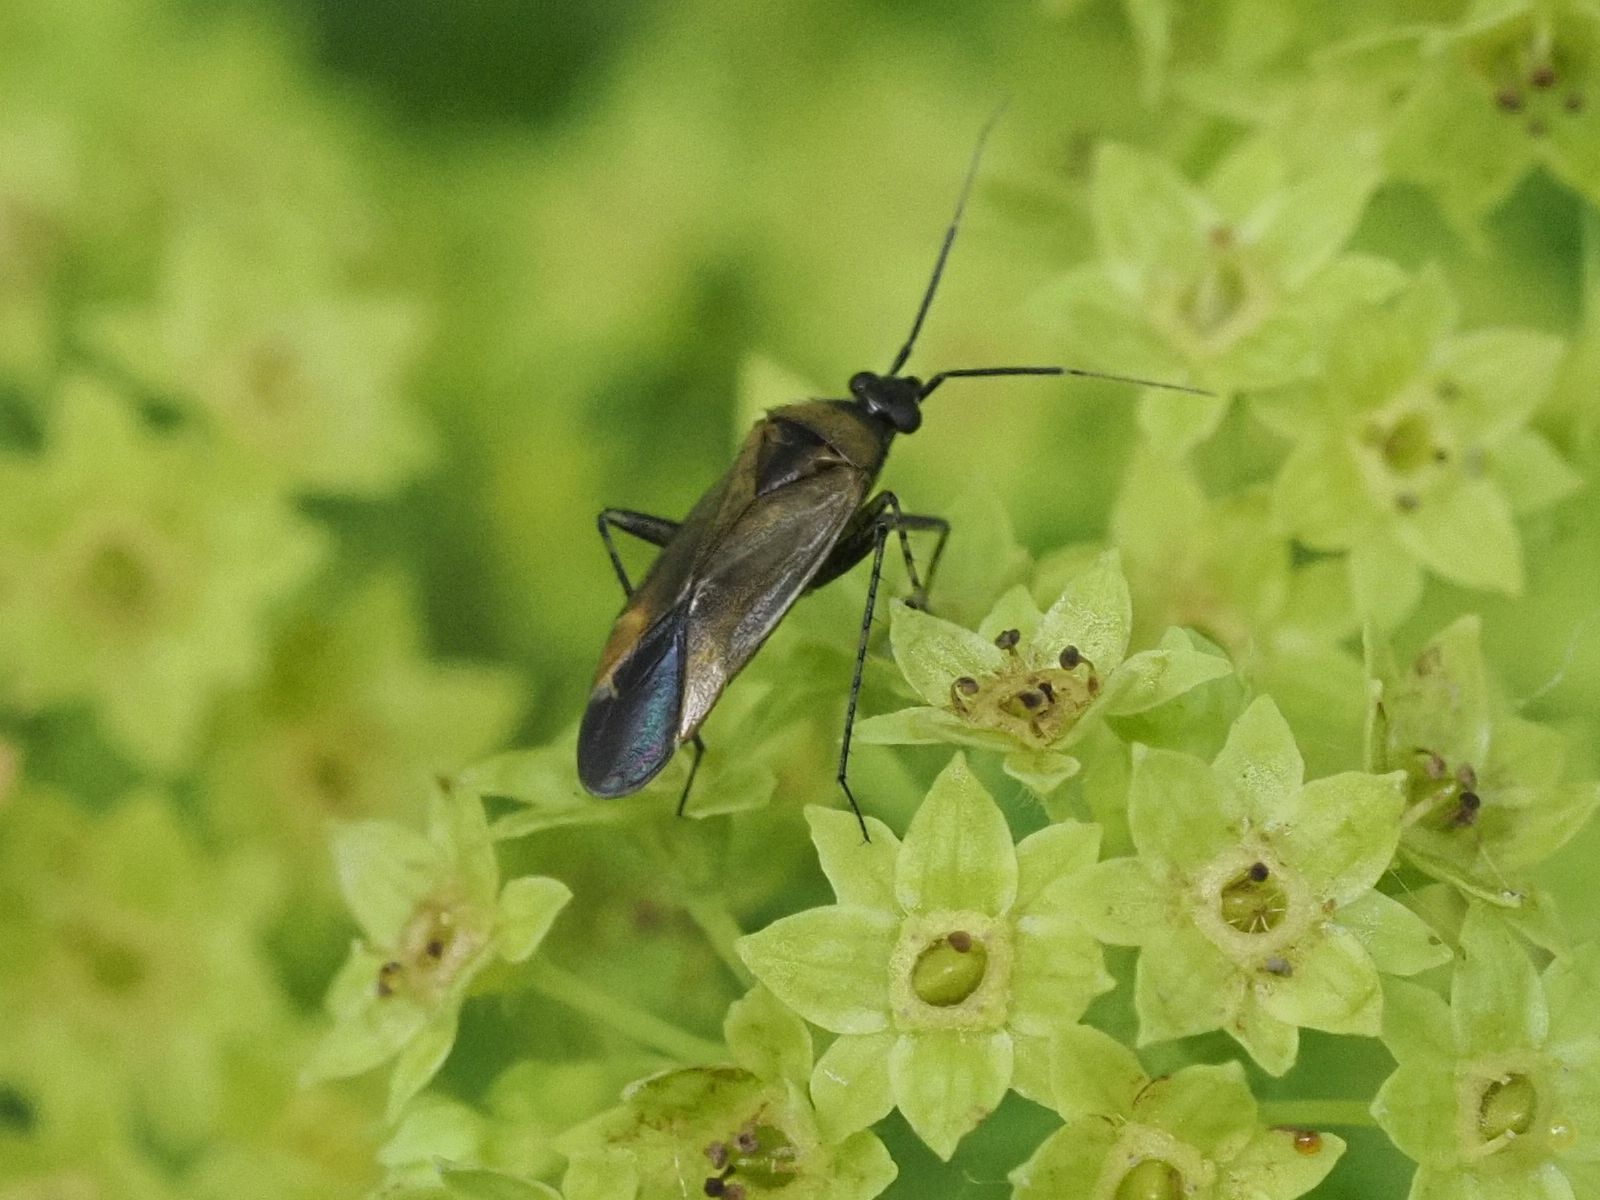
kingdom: Animalia
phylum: Arthropoda
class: Insecta
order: Hemiptera
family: Miridae
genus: Plagiognathus
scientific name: Plagiognathus arbustorum
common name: Plant bug
